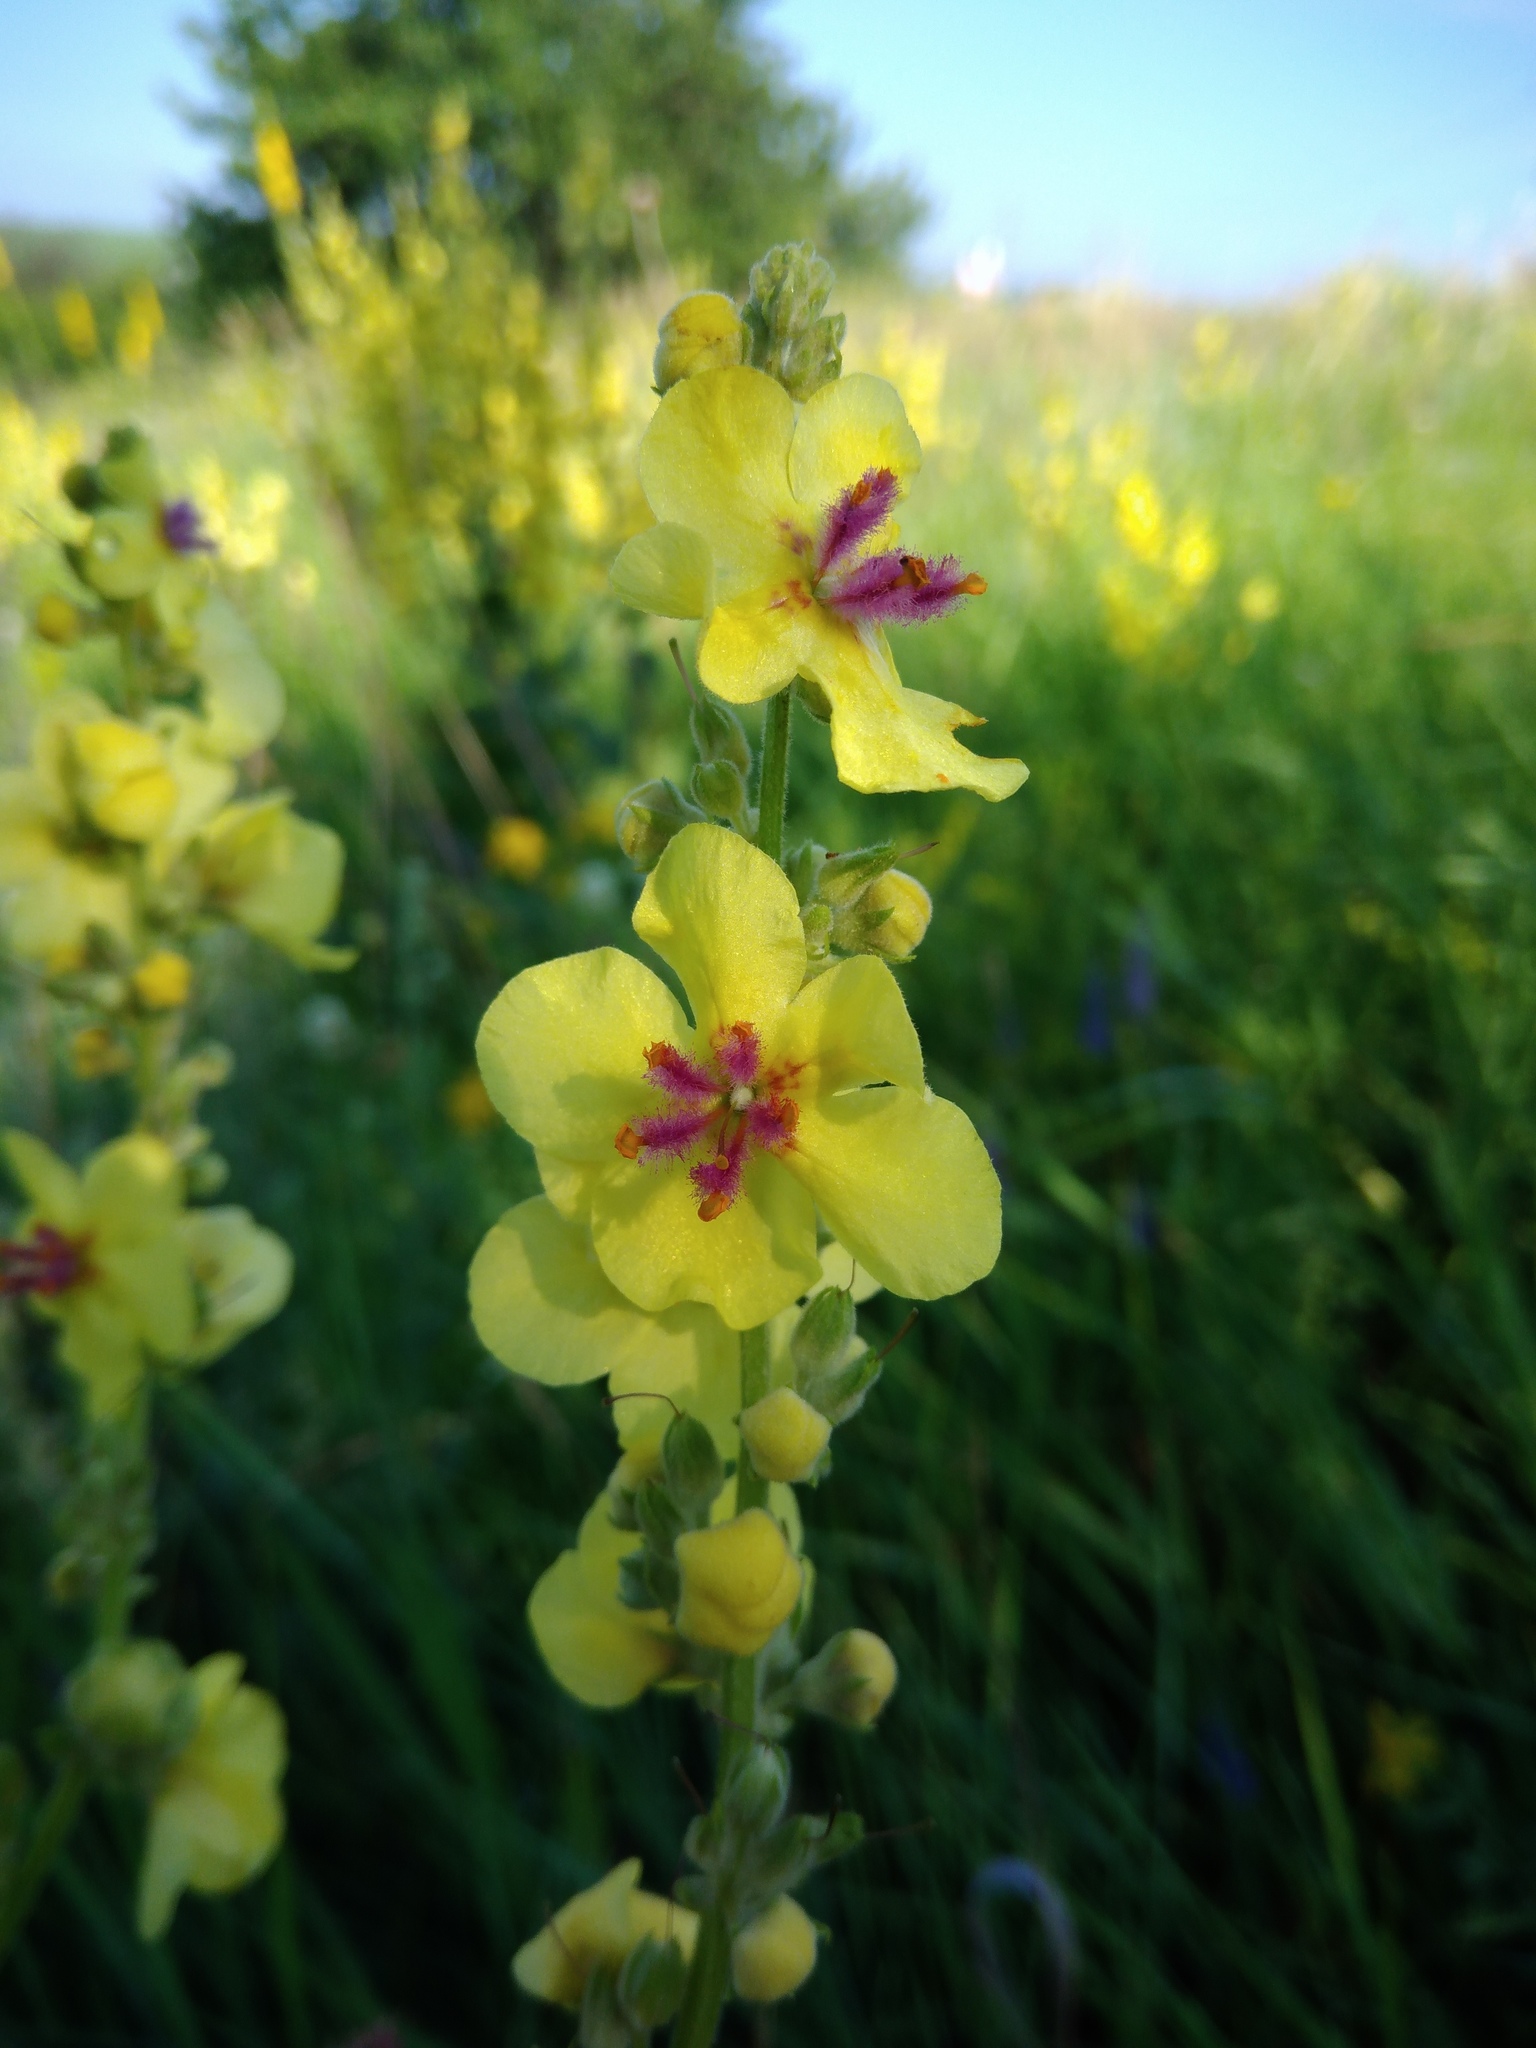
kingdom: Plantae
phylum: Tracheophyta
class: Magnoliopsida
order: Lamiales
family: Scrophulariaceae
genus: Verbascum
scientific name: Verbascum chaixii
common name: Nettle-leaved mullein
